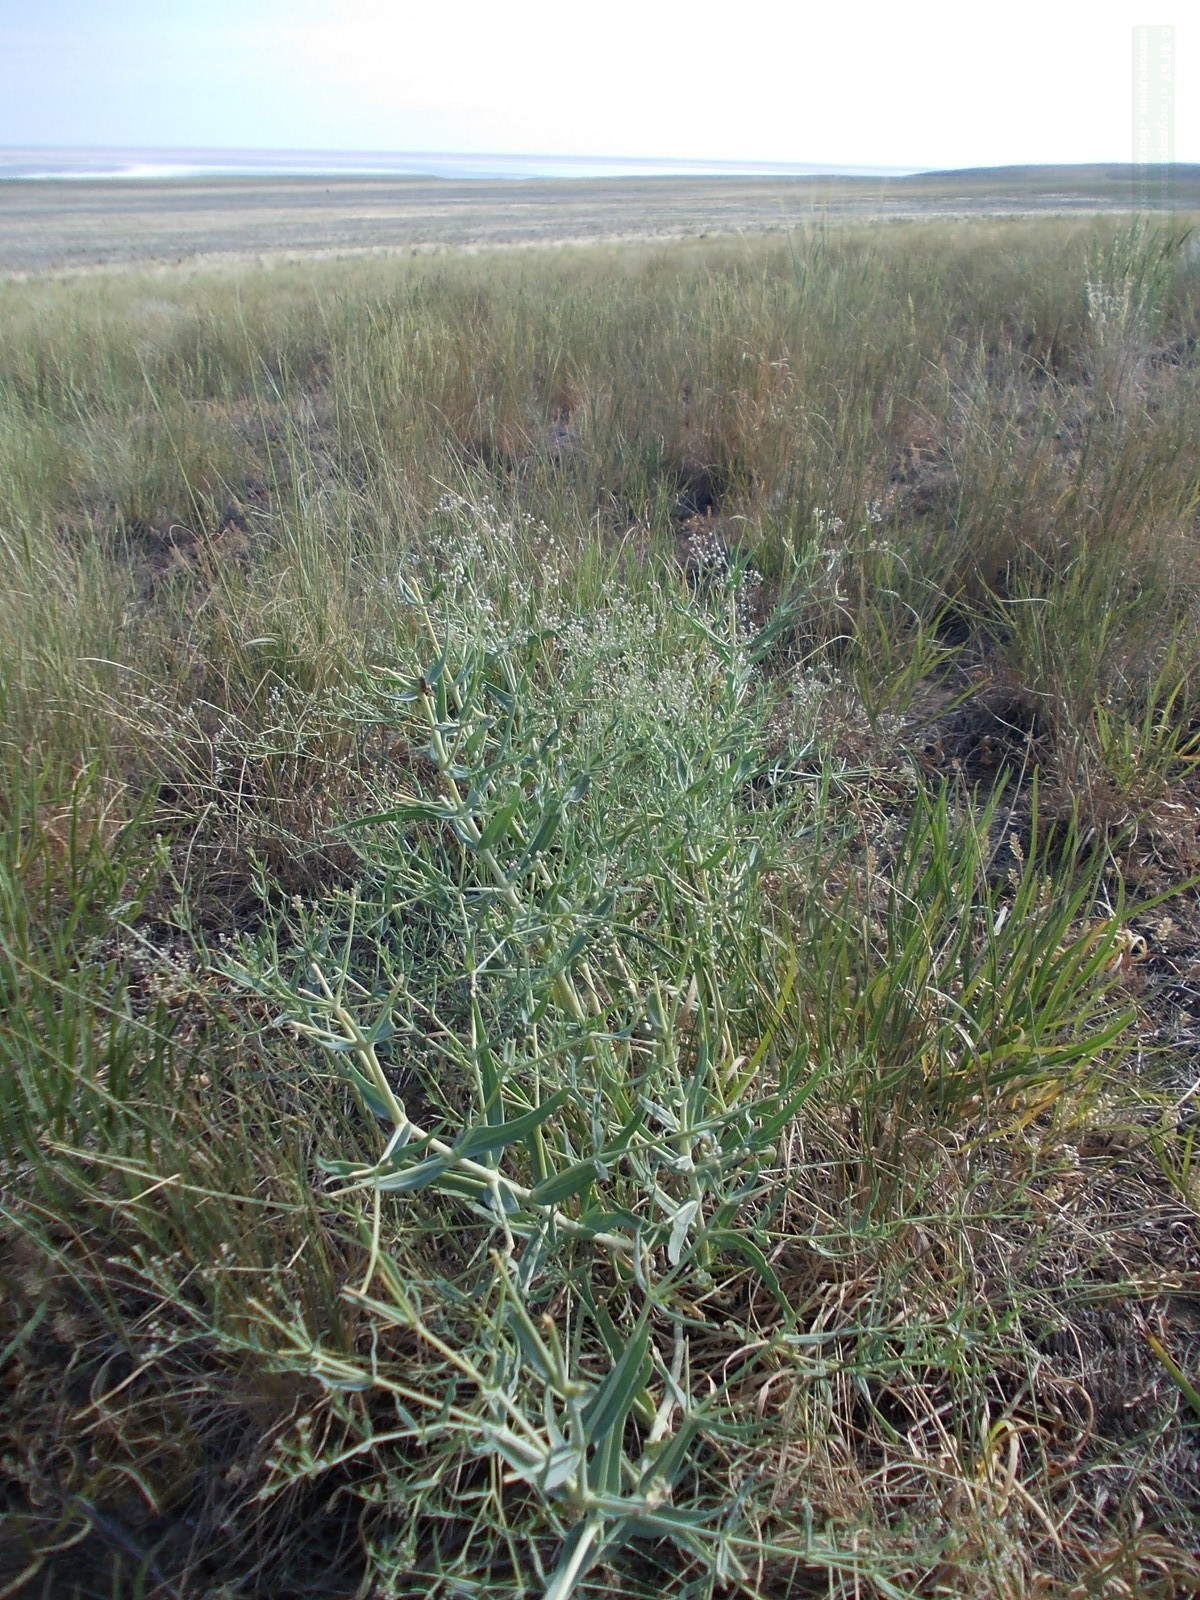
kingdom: Plantae
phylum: Tracheophyta
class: Magnoliopsida
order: Caryophyllales
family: Caryophyllaceae
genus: Gypsophila
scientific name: Gypsophila paniculata
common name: Baby's-breath
